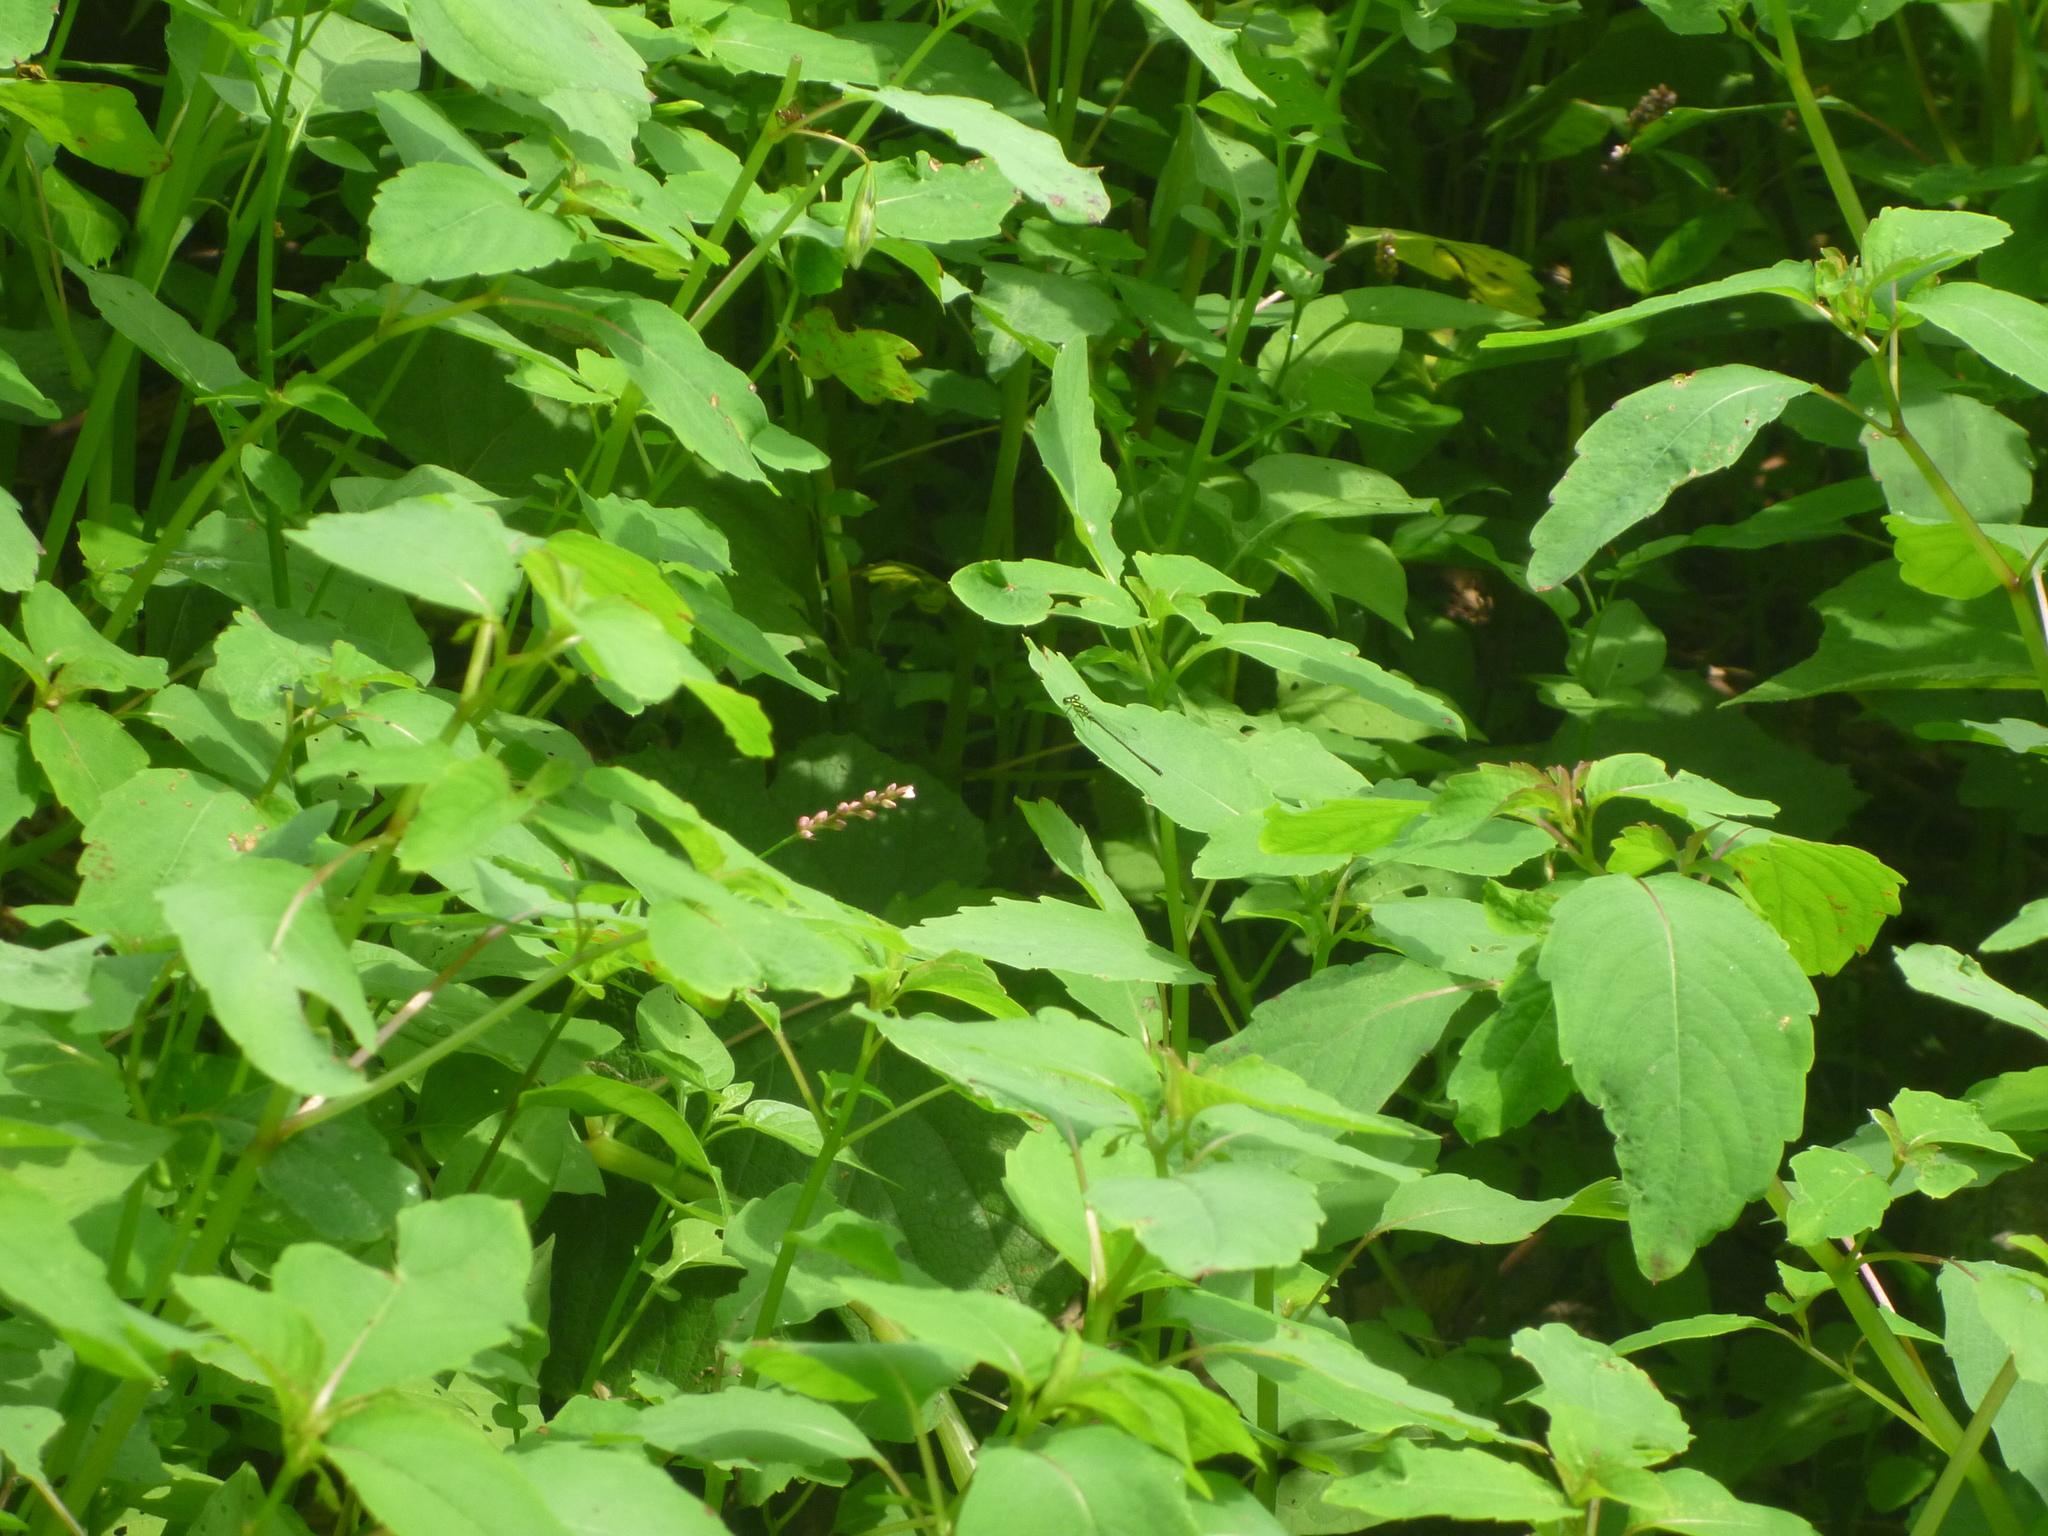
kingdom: Plantae
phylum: Tracheophyta
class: Magnoliopsida
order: Ericales
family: Balsaminaceae
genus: Impatiens
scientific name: Impatiens capensis
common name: Orange balsam
